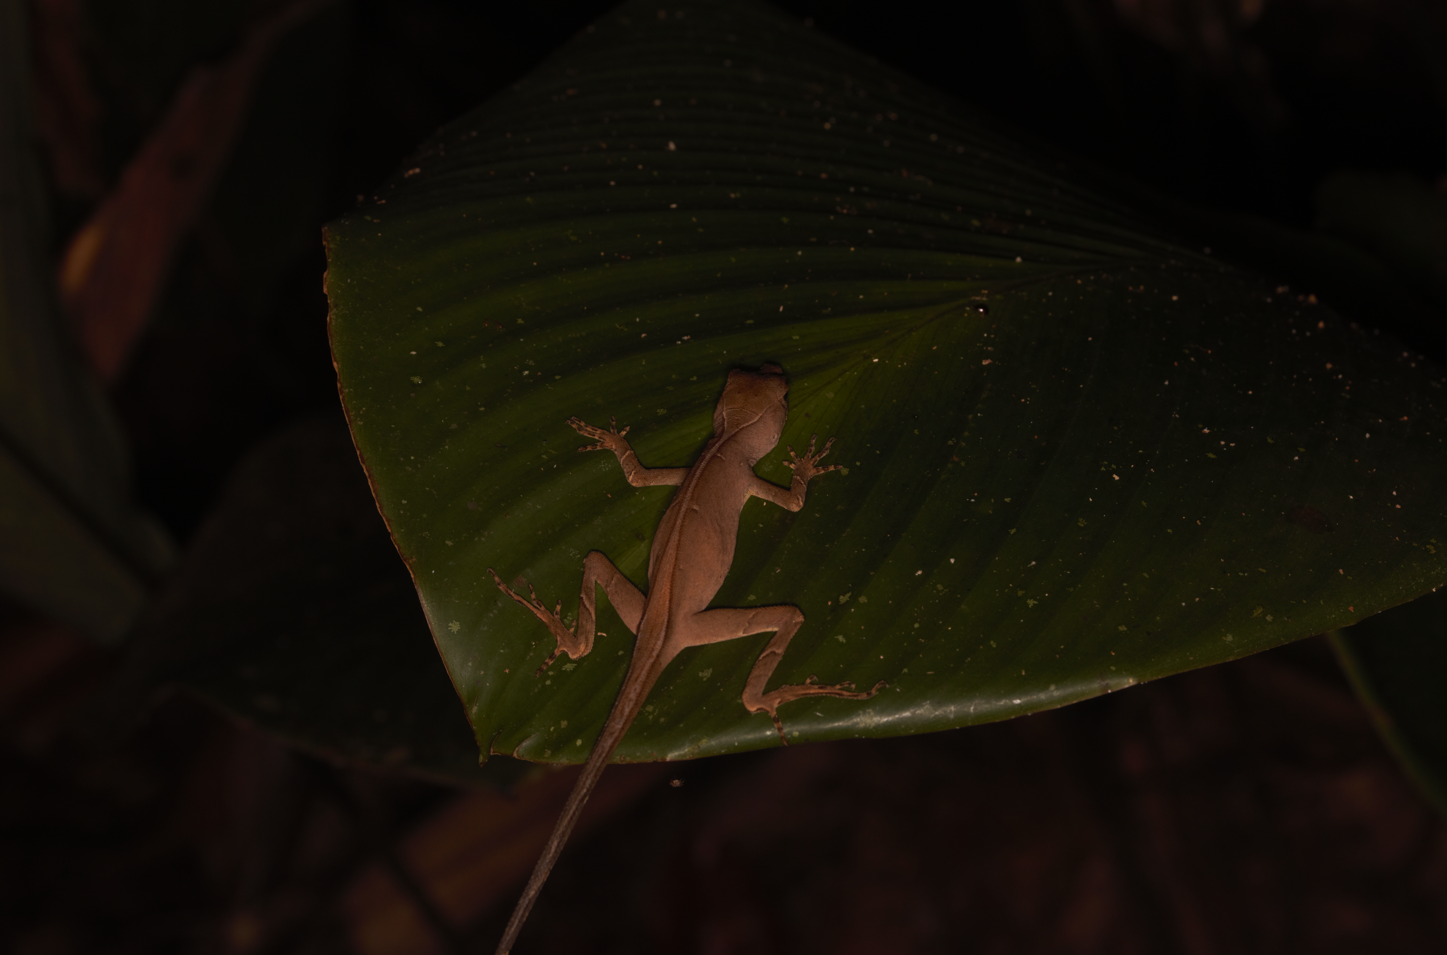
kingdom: Animalia
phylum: Chordata
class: Squamata
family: Dactyloidae
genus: Anolis
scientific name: Anolis chrysolepis
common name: Goldenscale anole
